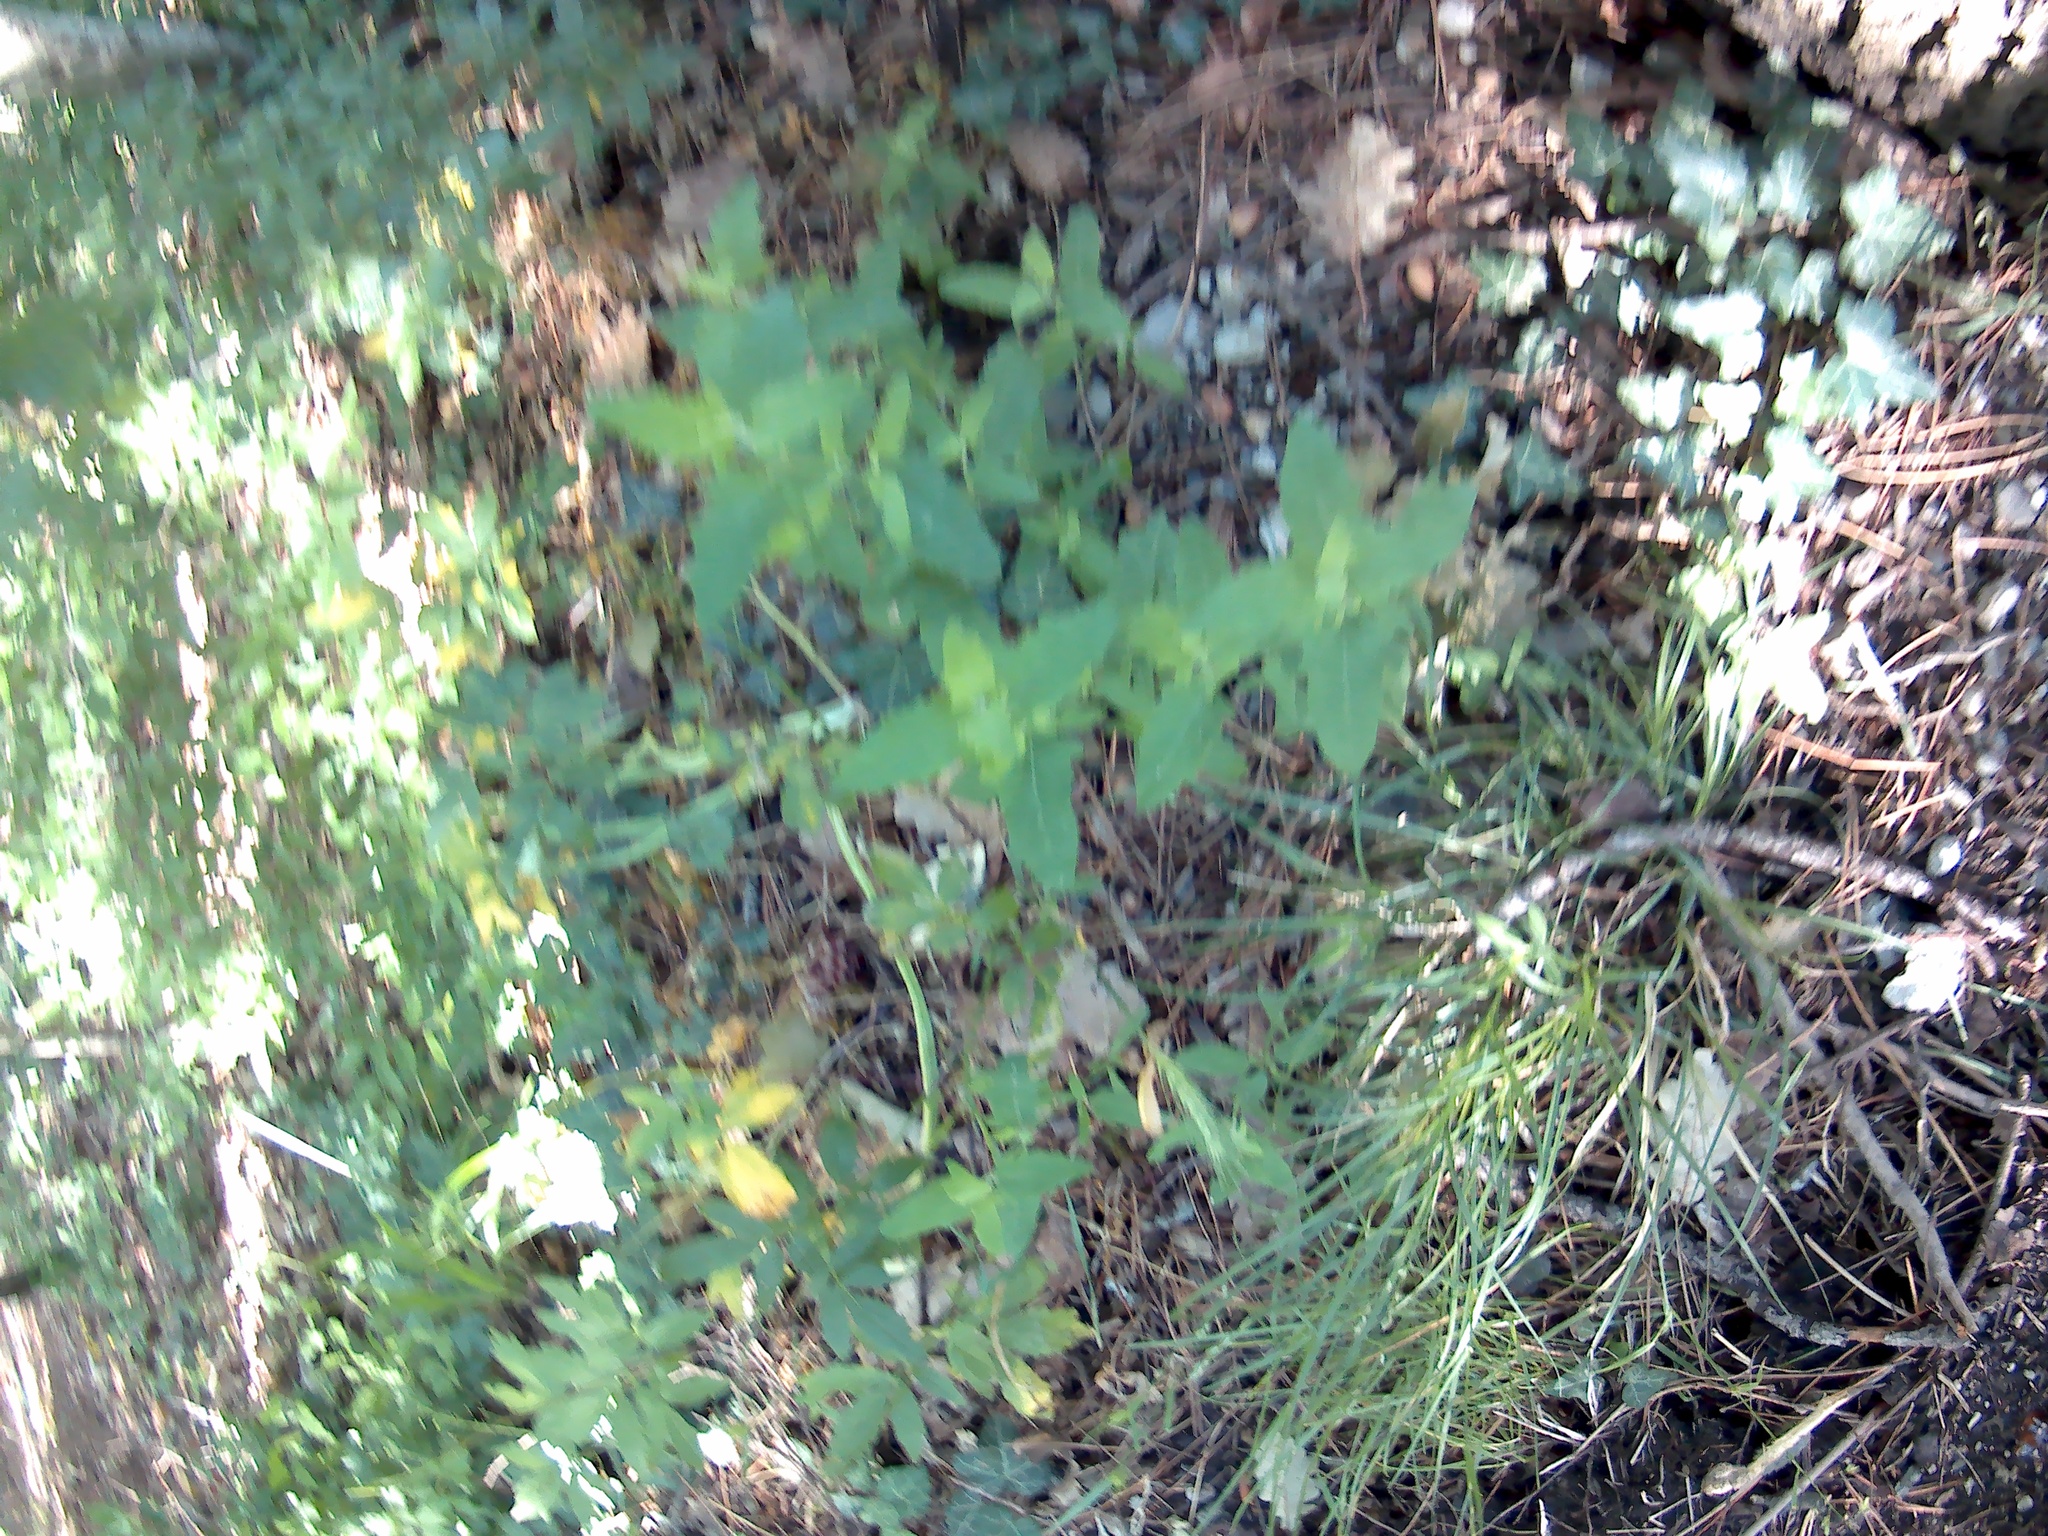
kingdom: Plantae
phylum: Tracheophyta
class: Magnoliopsida
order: Caryophyllales
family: Amaranthaceae
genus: Chenopodium
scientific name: Chenopodium album
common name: Fat-hen
